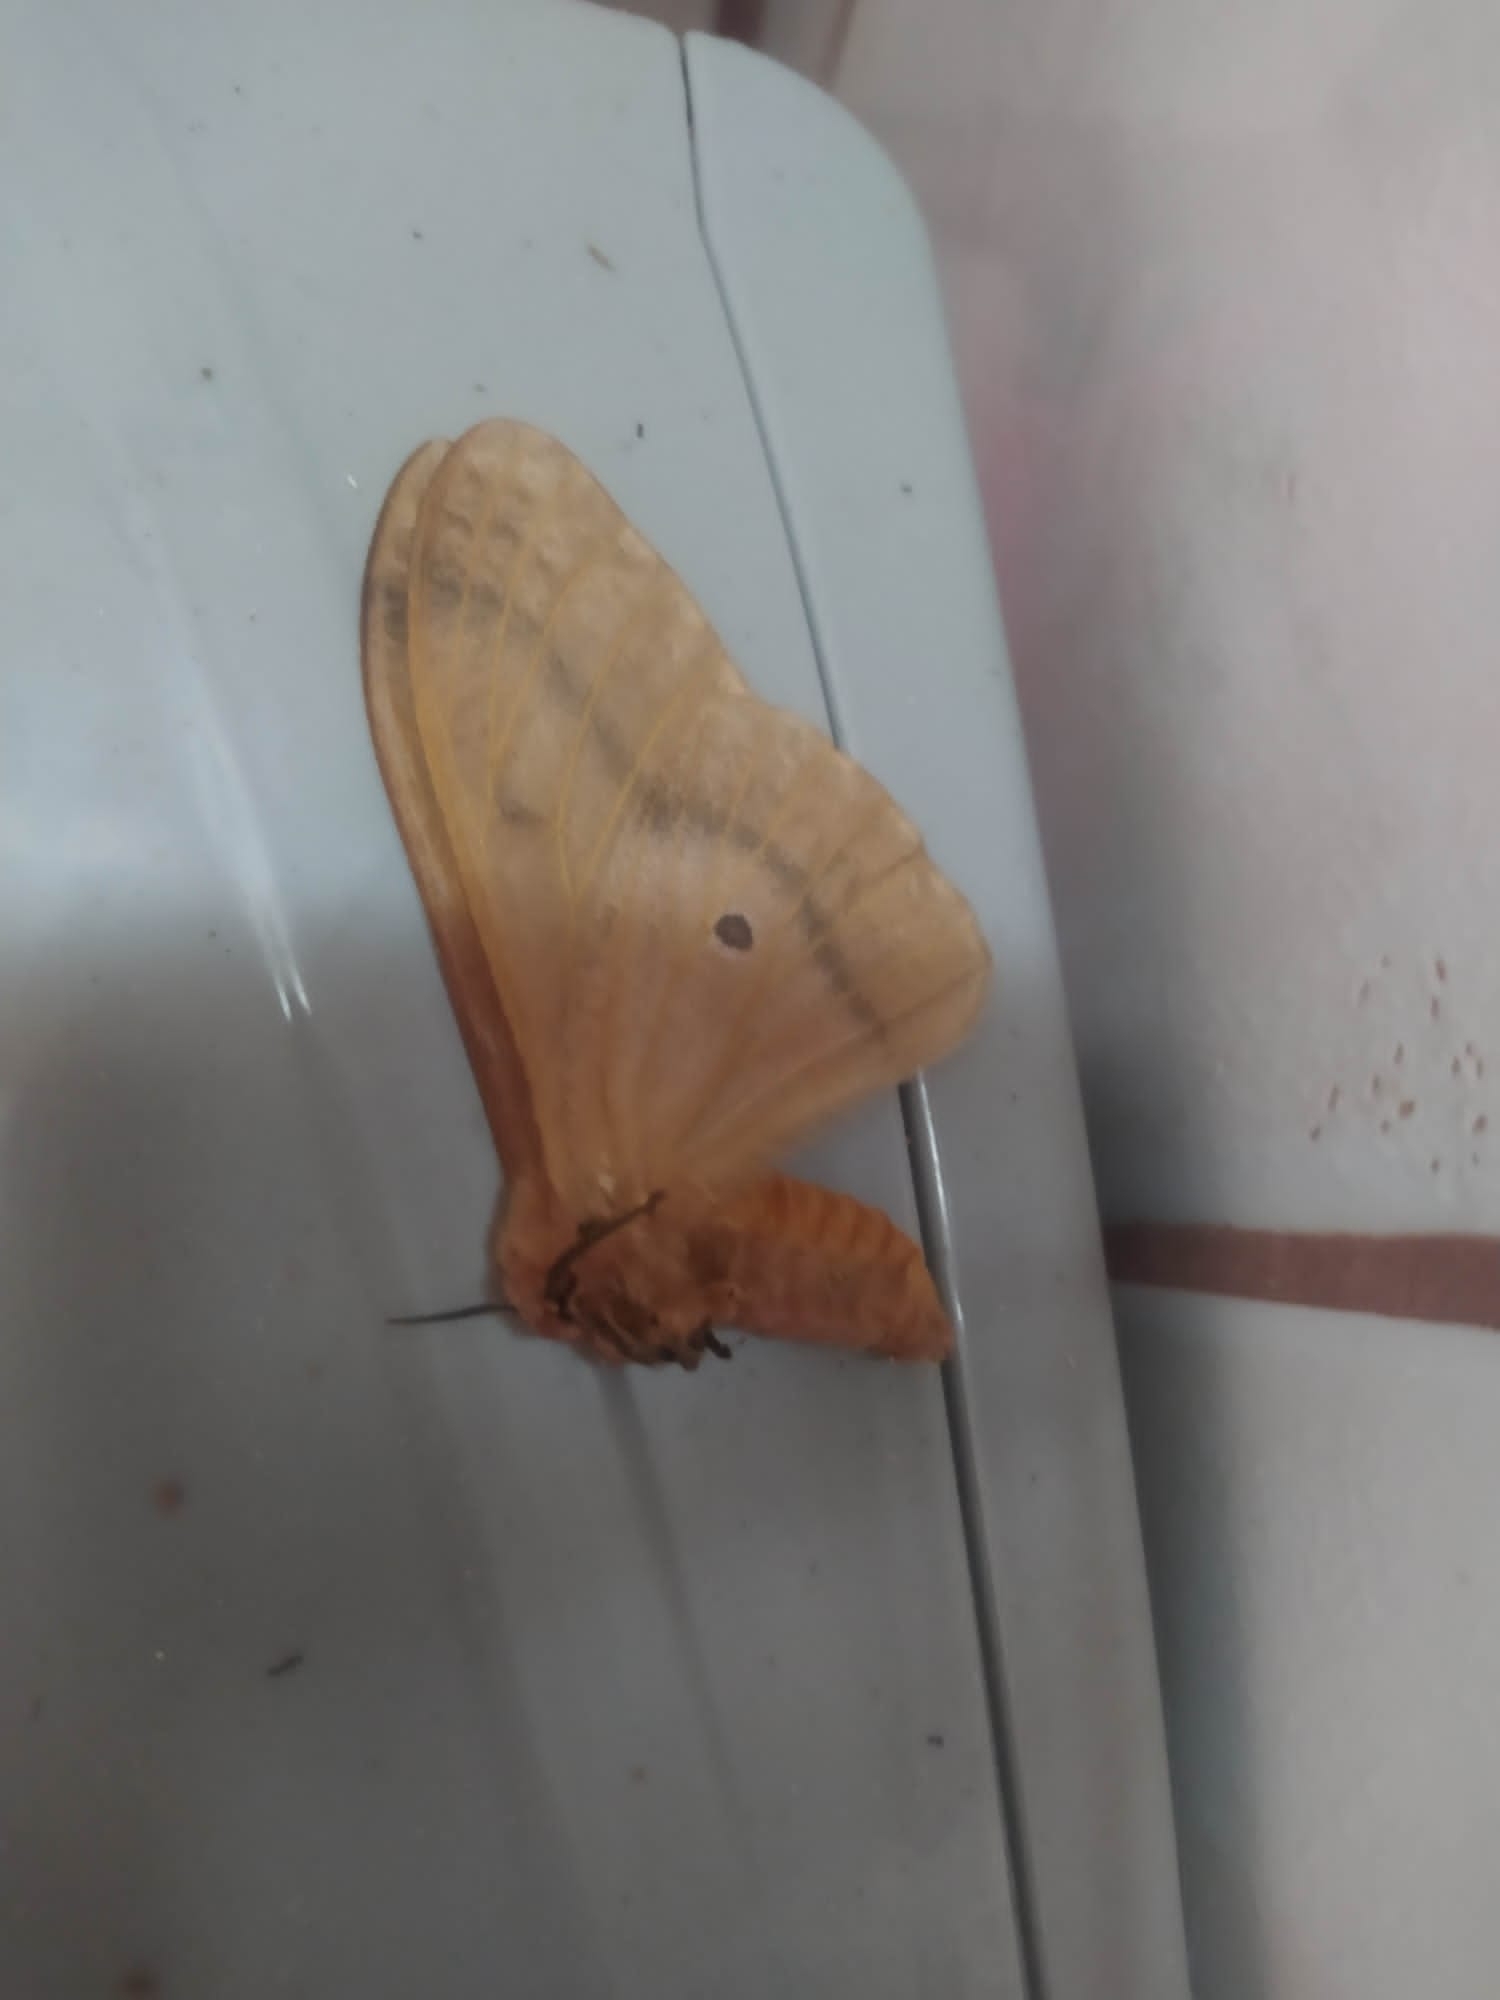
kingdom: Animalia
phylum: Arthropoda
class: Insecta
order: Lepidoptera
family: Saturniidae
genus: Cirina
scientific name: Cirina forda
